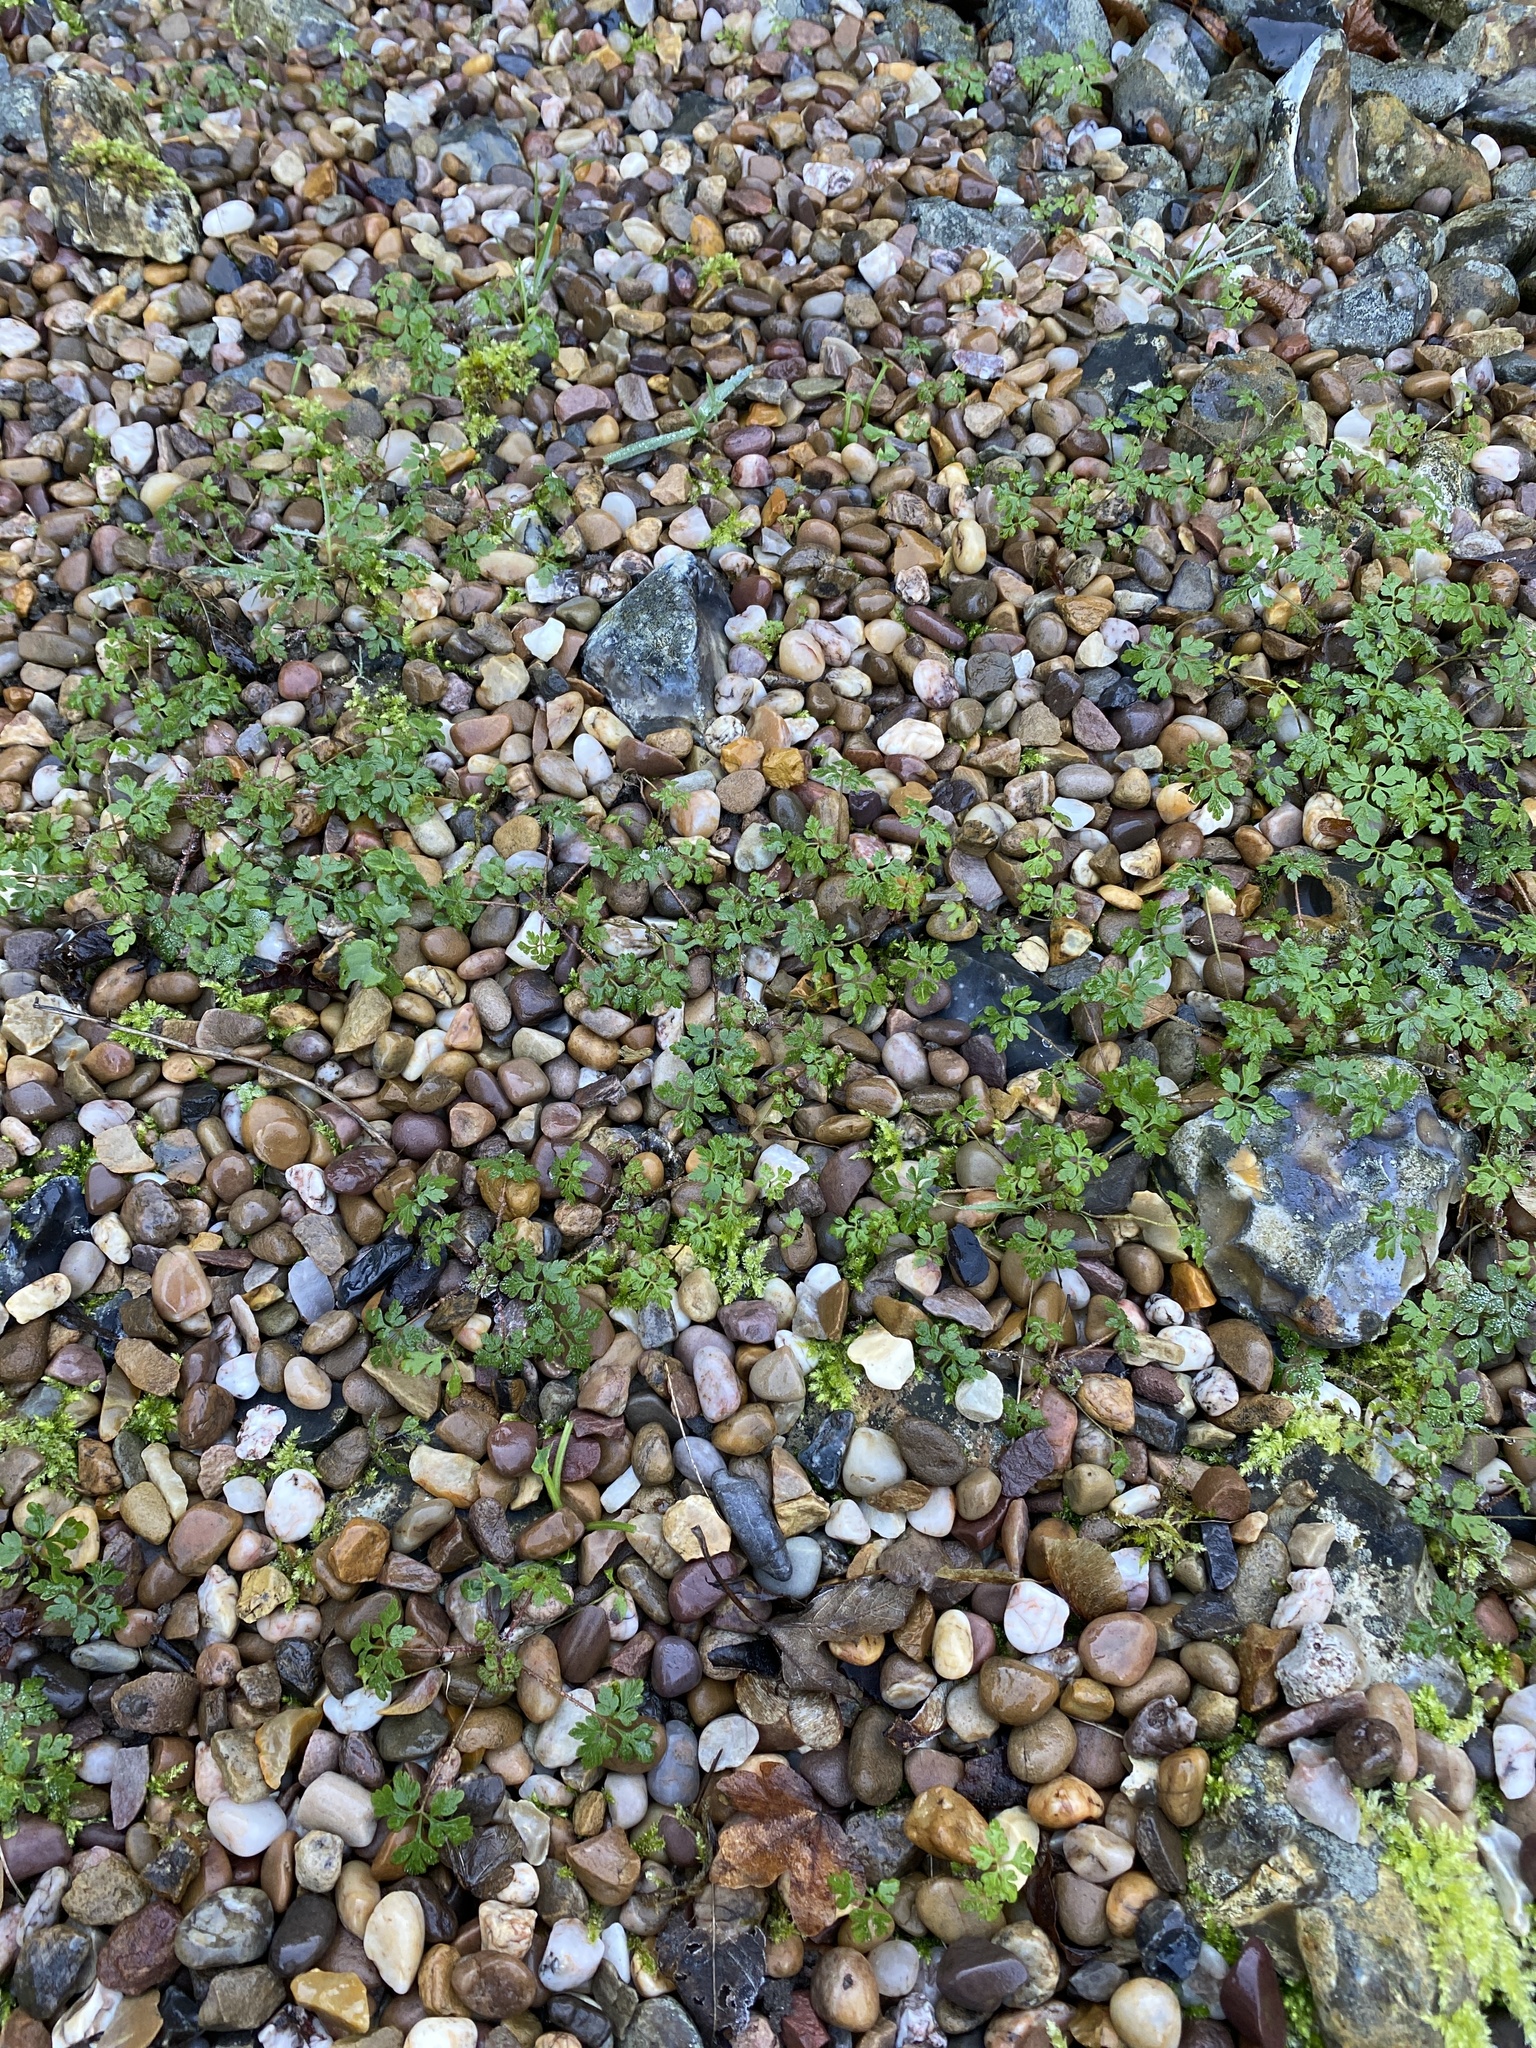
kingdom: Plantae
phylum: Tracheophyta
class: Magnoliopsida
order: Geraniales
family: Geraniaceae
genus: Geranium
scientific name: Geranium robertianum
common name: Herb-robert
